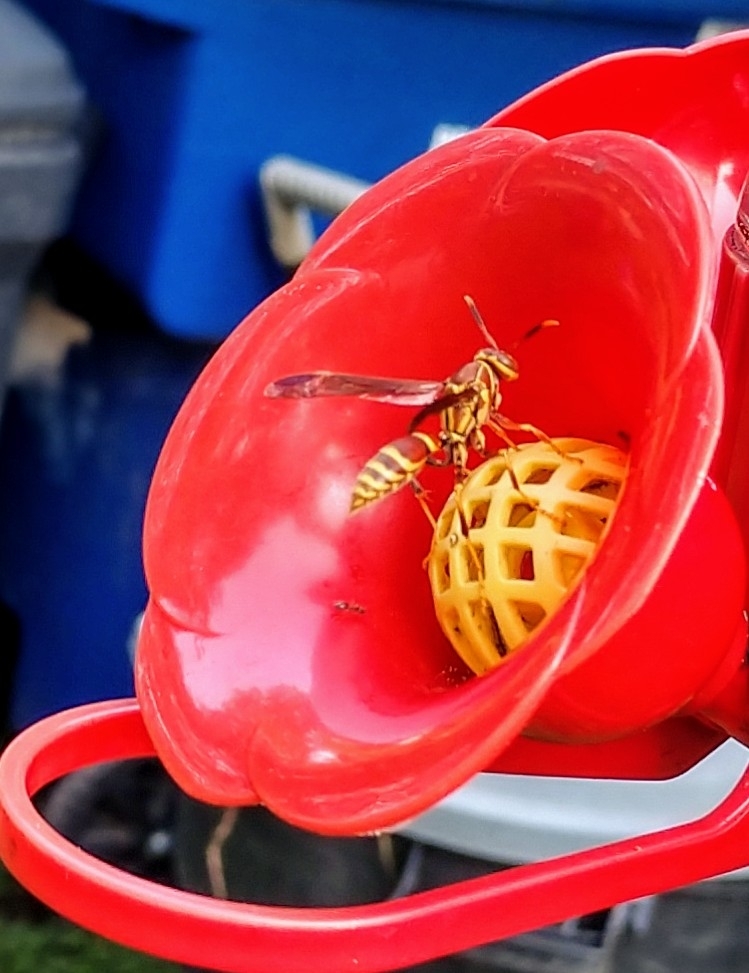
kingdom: Animalia
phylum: Arthropoda
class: Insecta
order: Hymenoptera
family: Eumenidae
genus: Polistes
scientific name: Polistes exclamans
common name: Paper wasp
